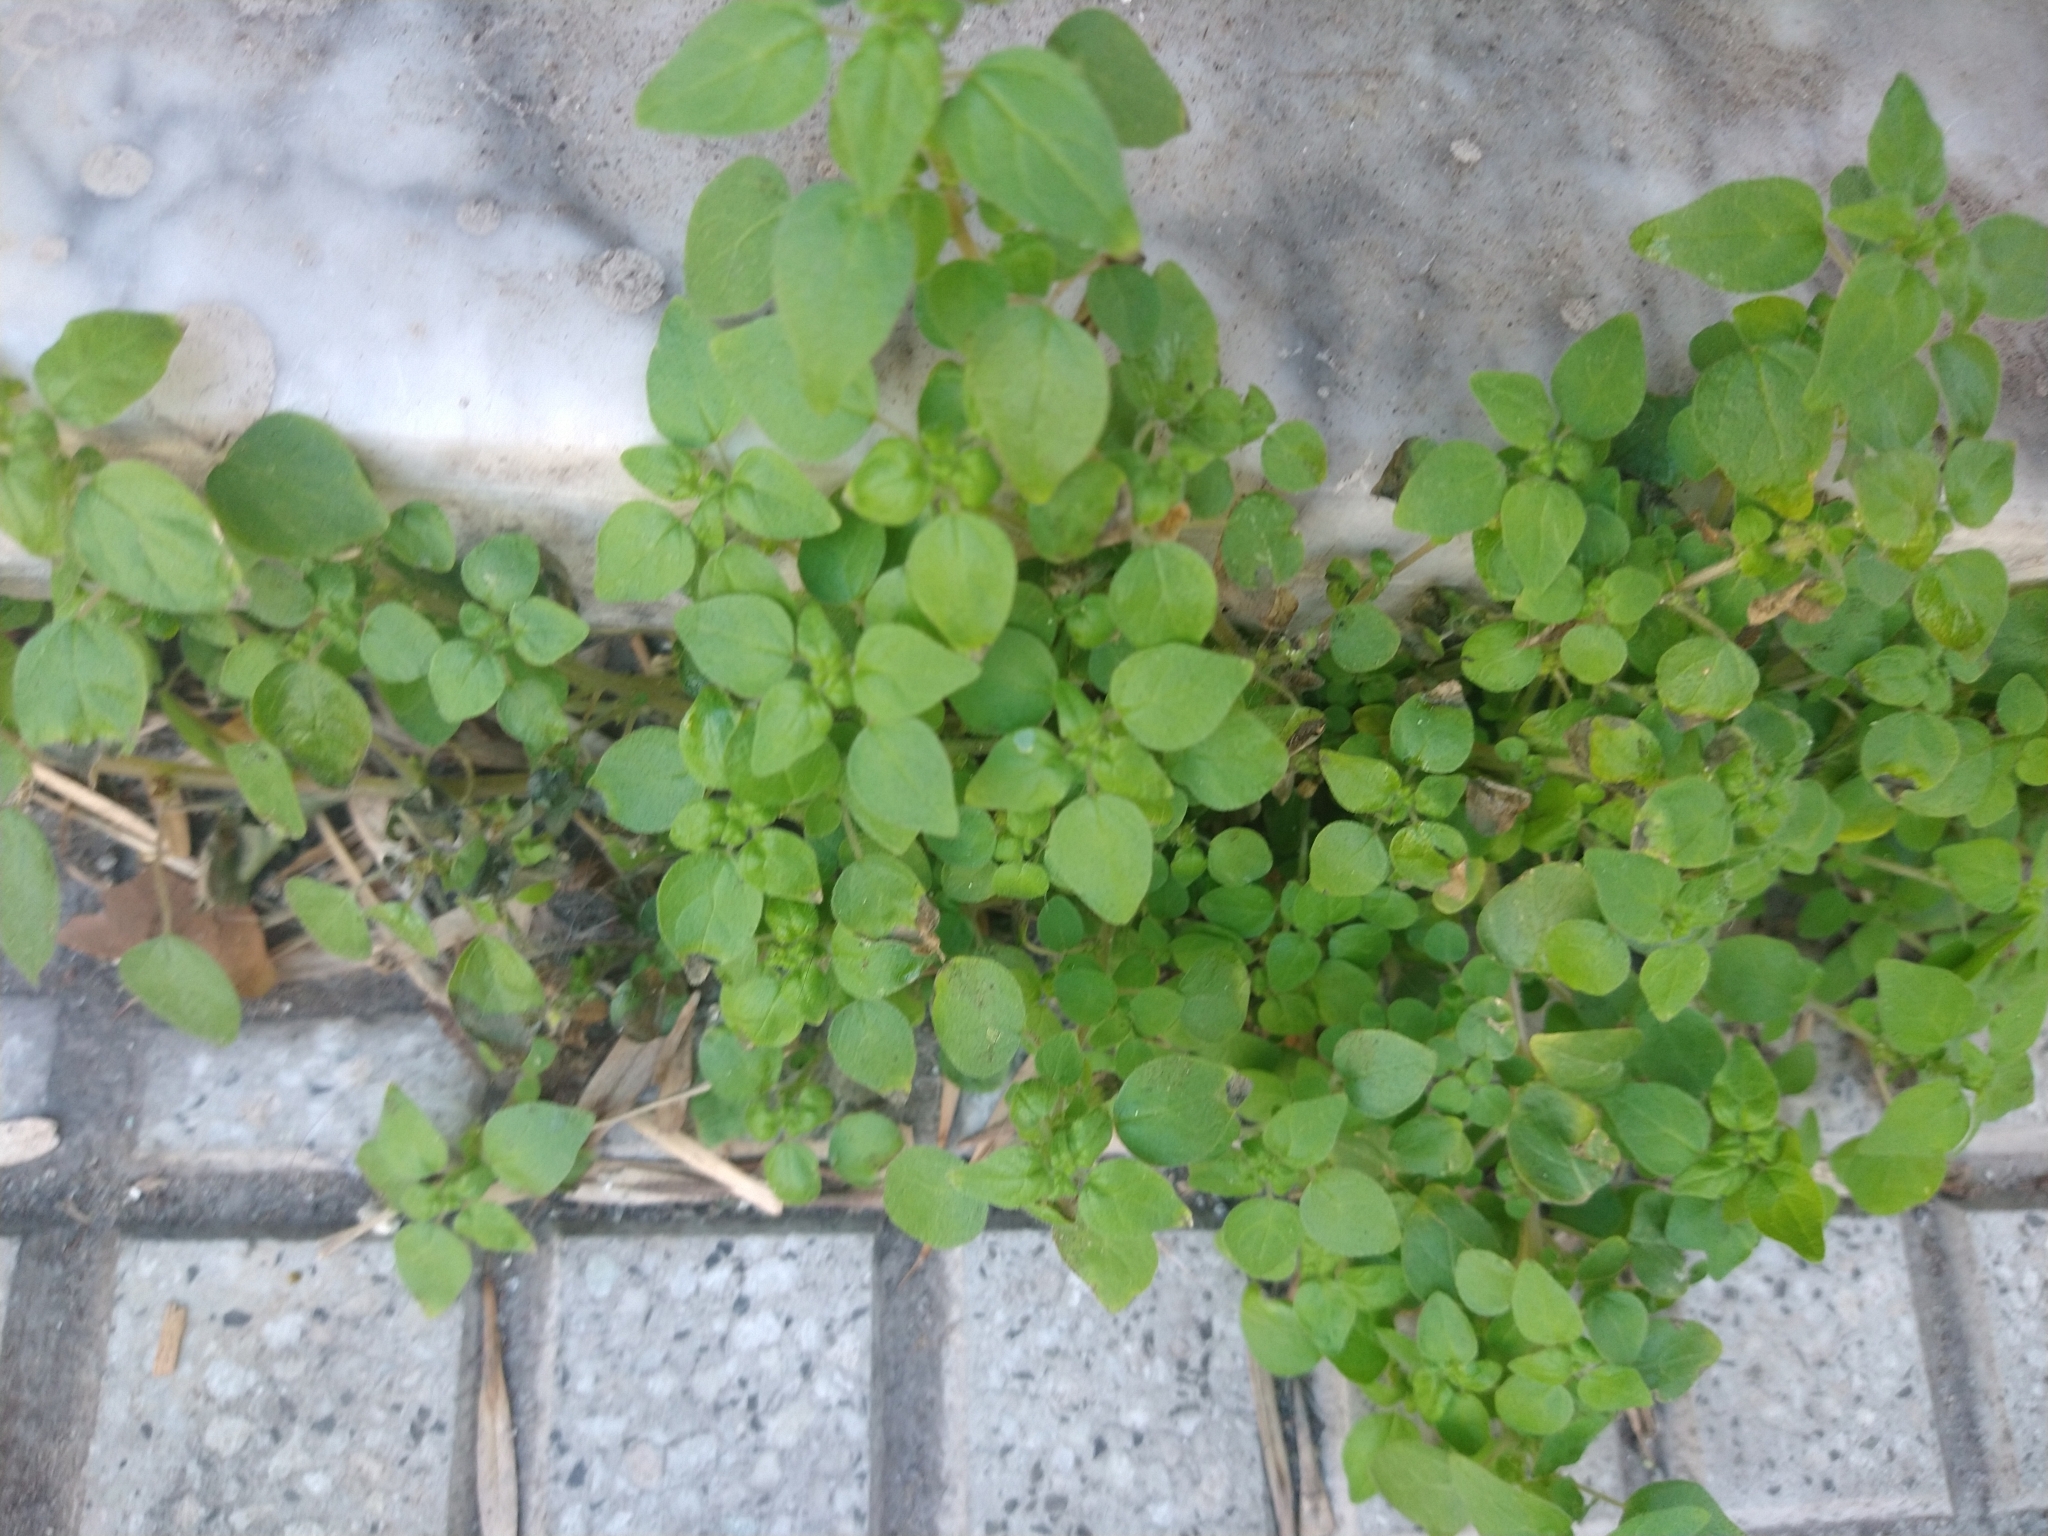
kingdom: Plantae
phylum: Tracheophyta
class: Magnoliopsida
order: Caryophyllales
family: Caryophyllaceae
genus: Stellaria
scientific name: Stellaria media
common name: Common chickweed
